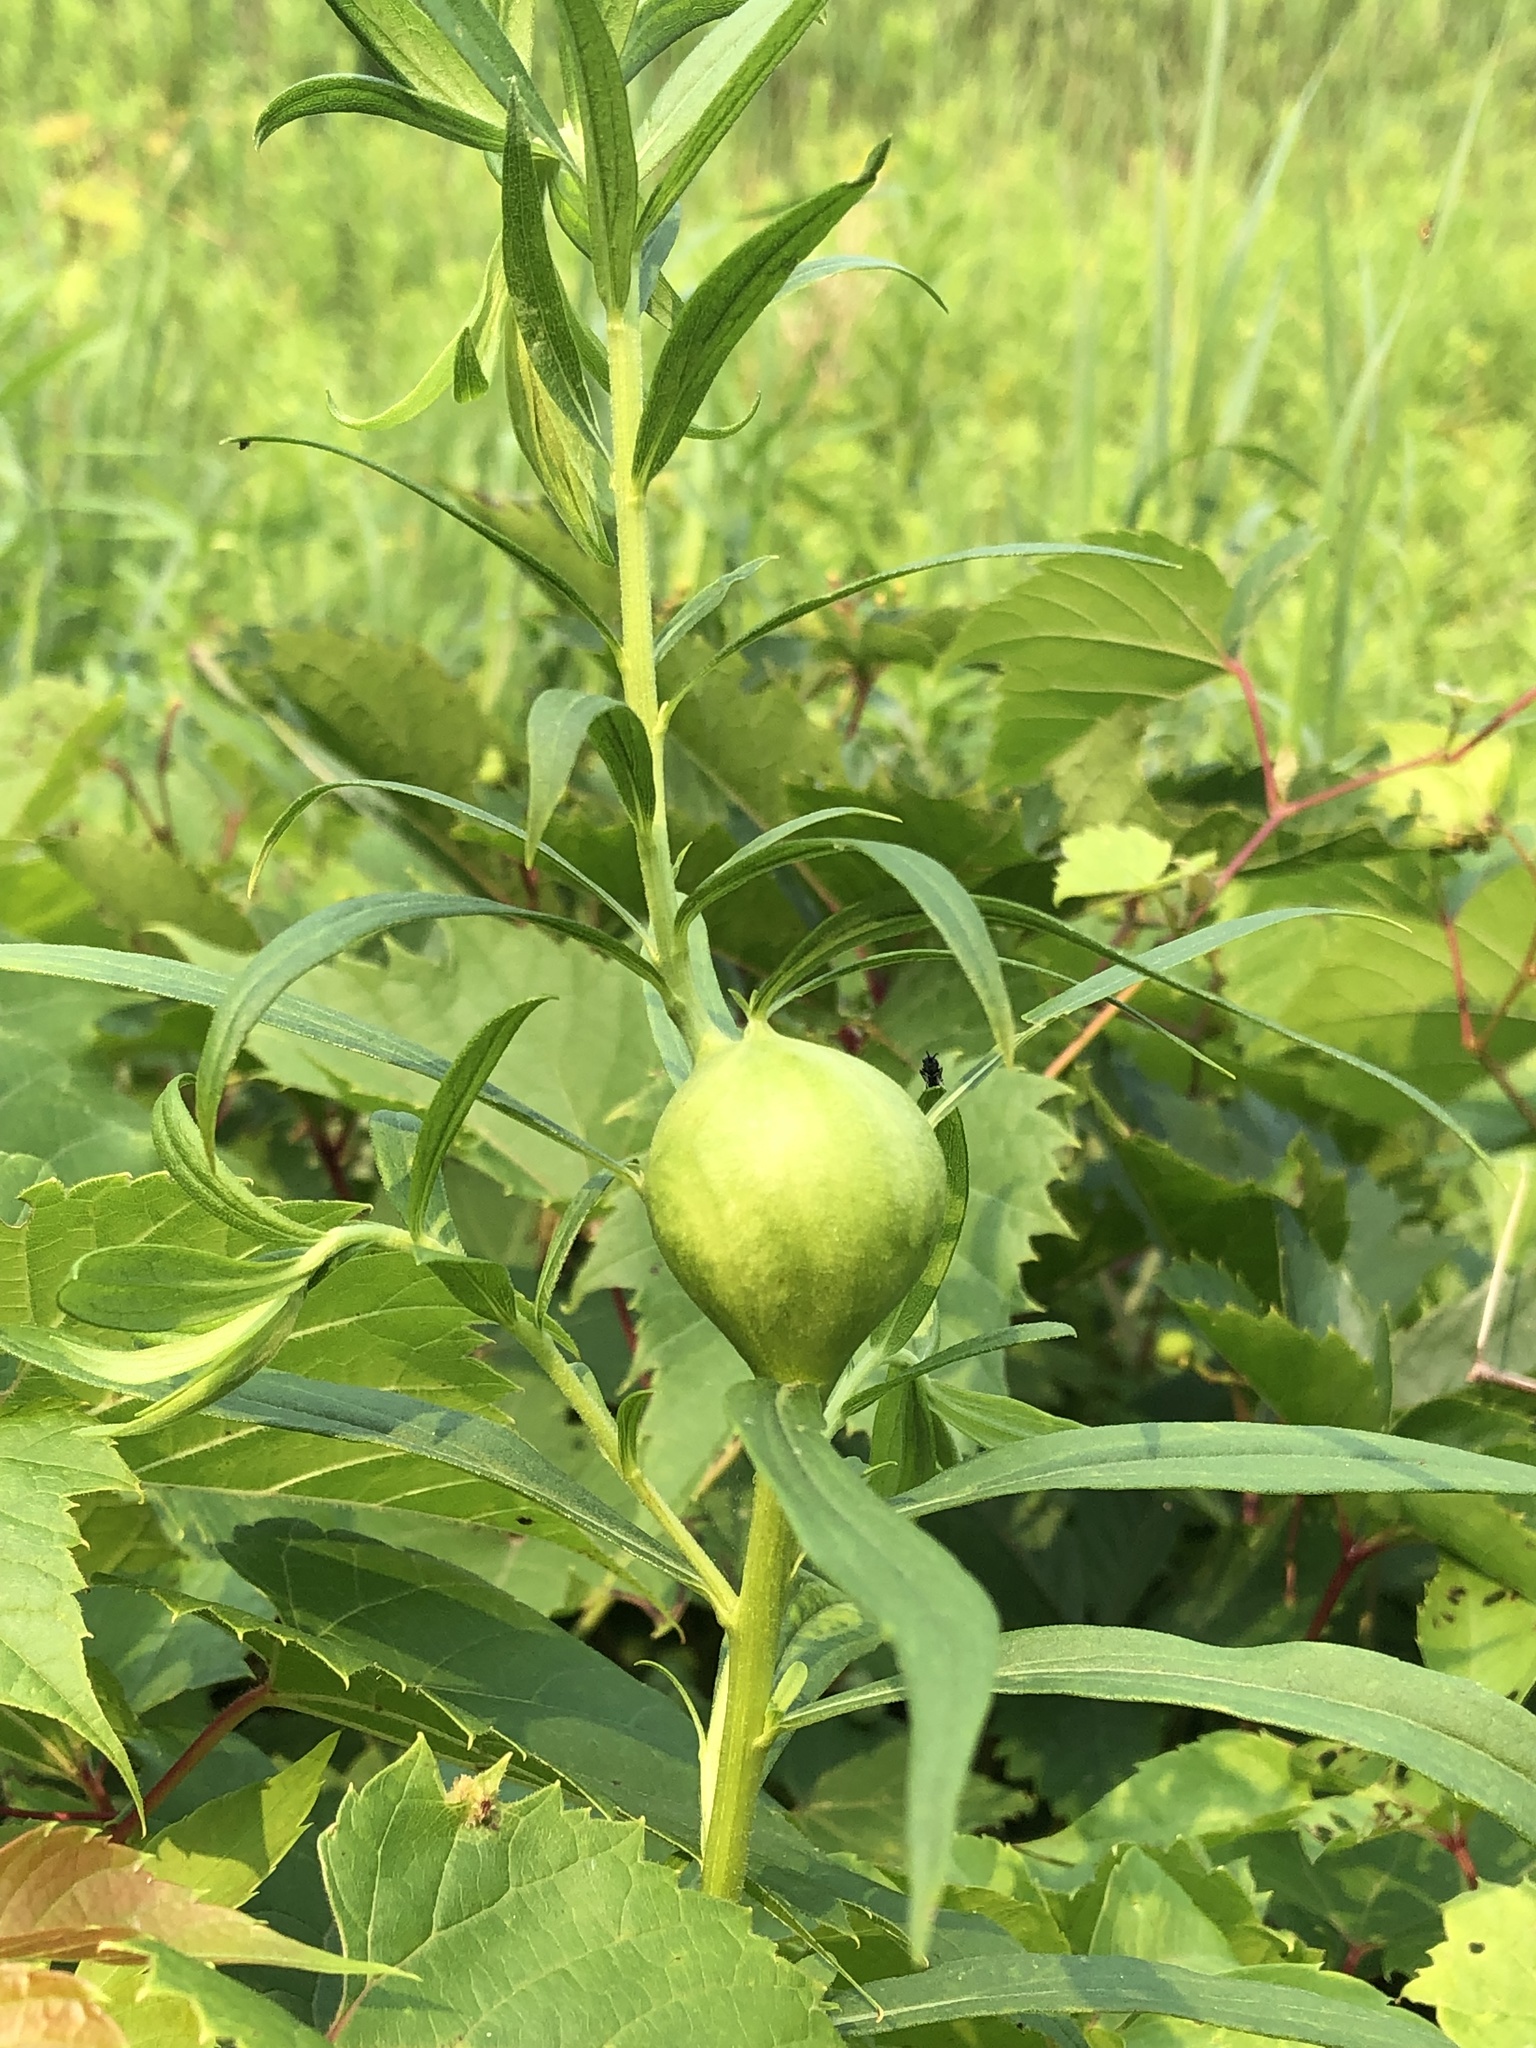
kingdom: Animalia
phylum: Arthropoda
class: Insecta
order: Diptera
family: Tephritidae
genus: Eurosta
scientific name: Eurosta solidaginis
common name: Goldenrod gall fly
